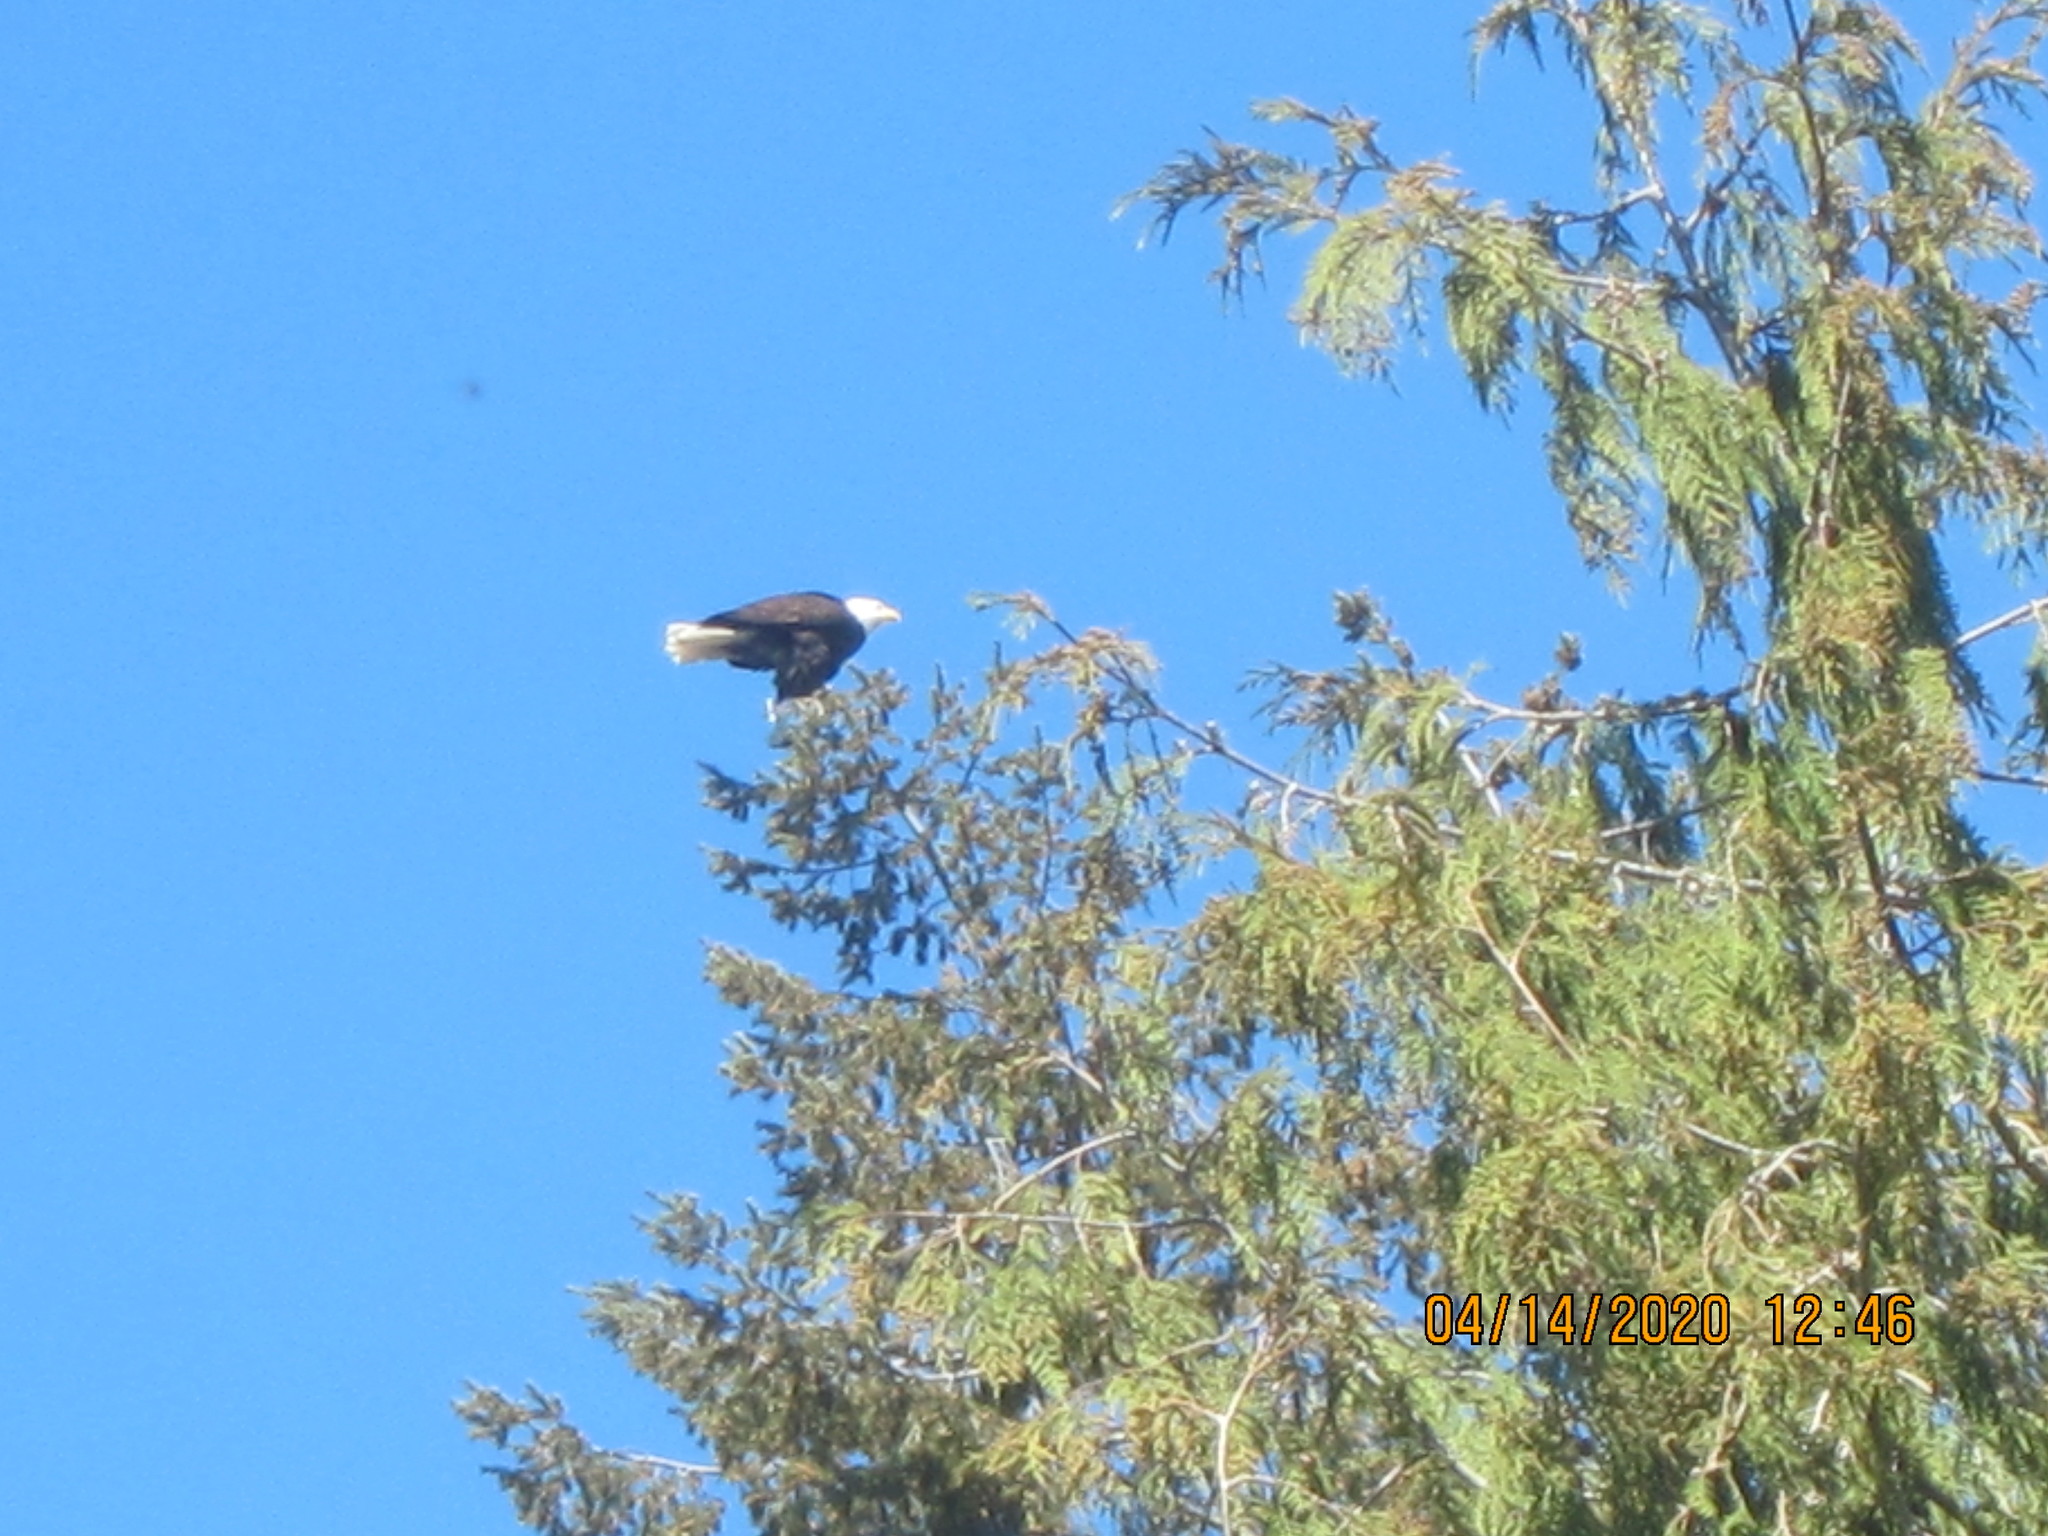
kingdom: Animalia
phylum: Chordata
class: Aves
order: Accipitriformes
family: Accipitridae
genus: Haliaeetus
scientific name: Haliaeetus leucocephalus
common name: Bald eagle
